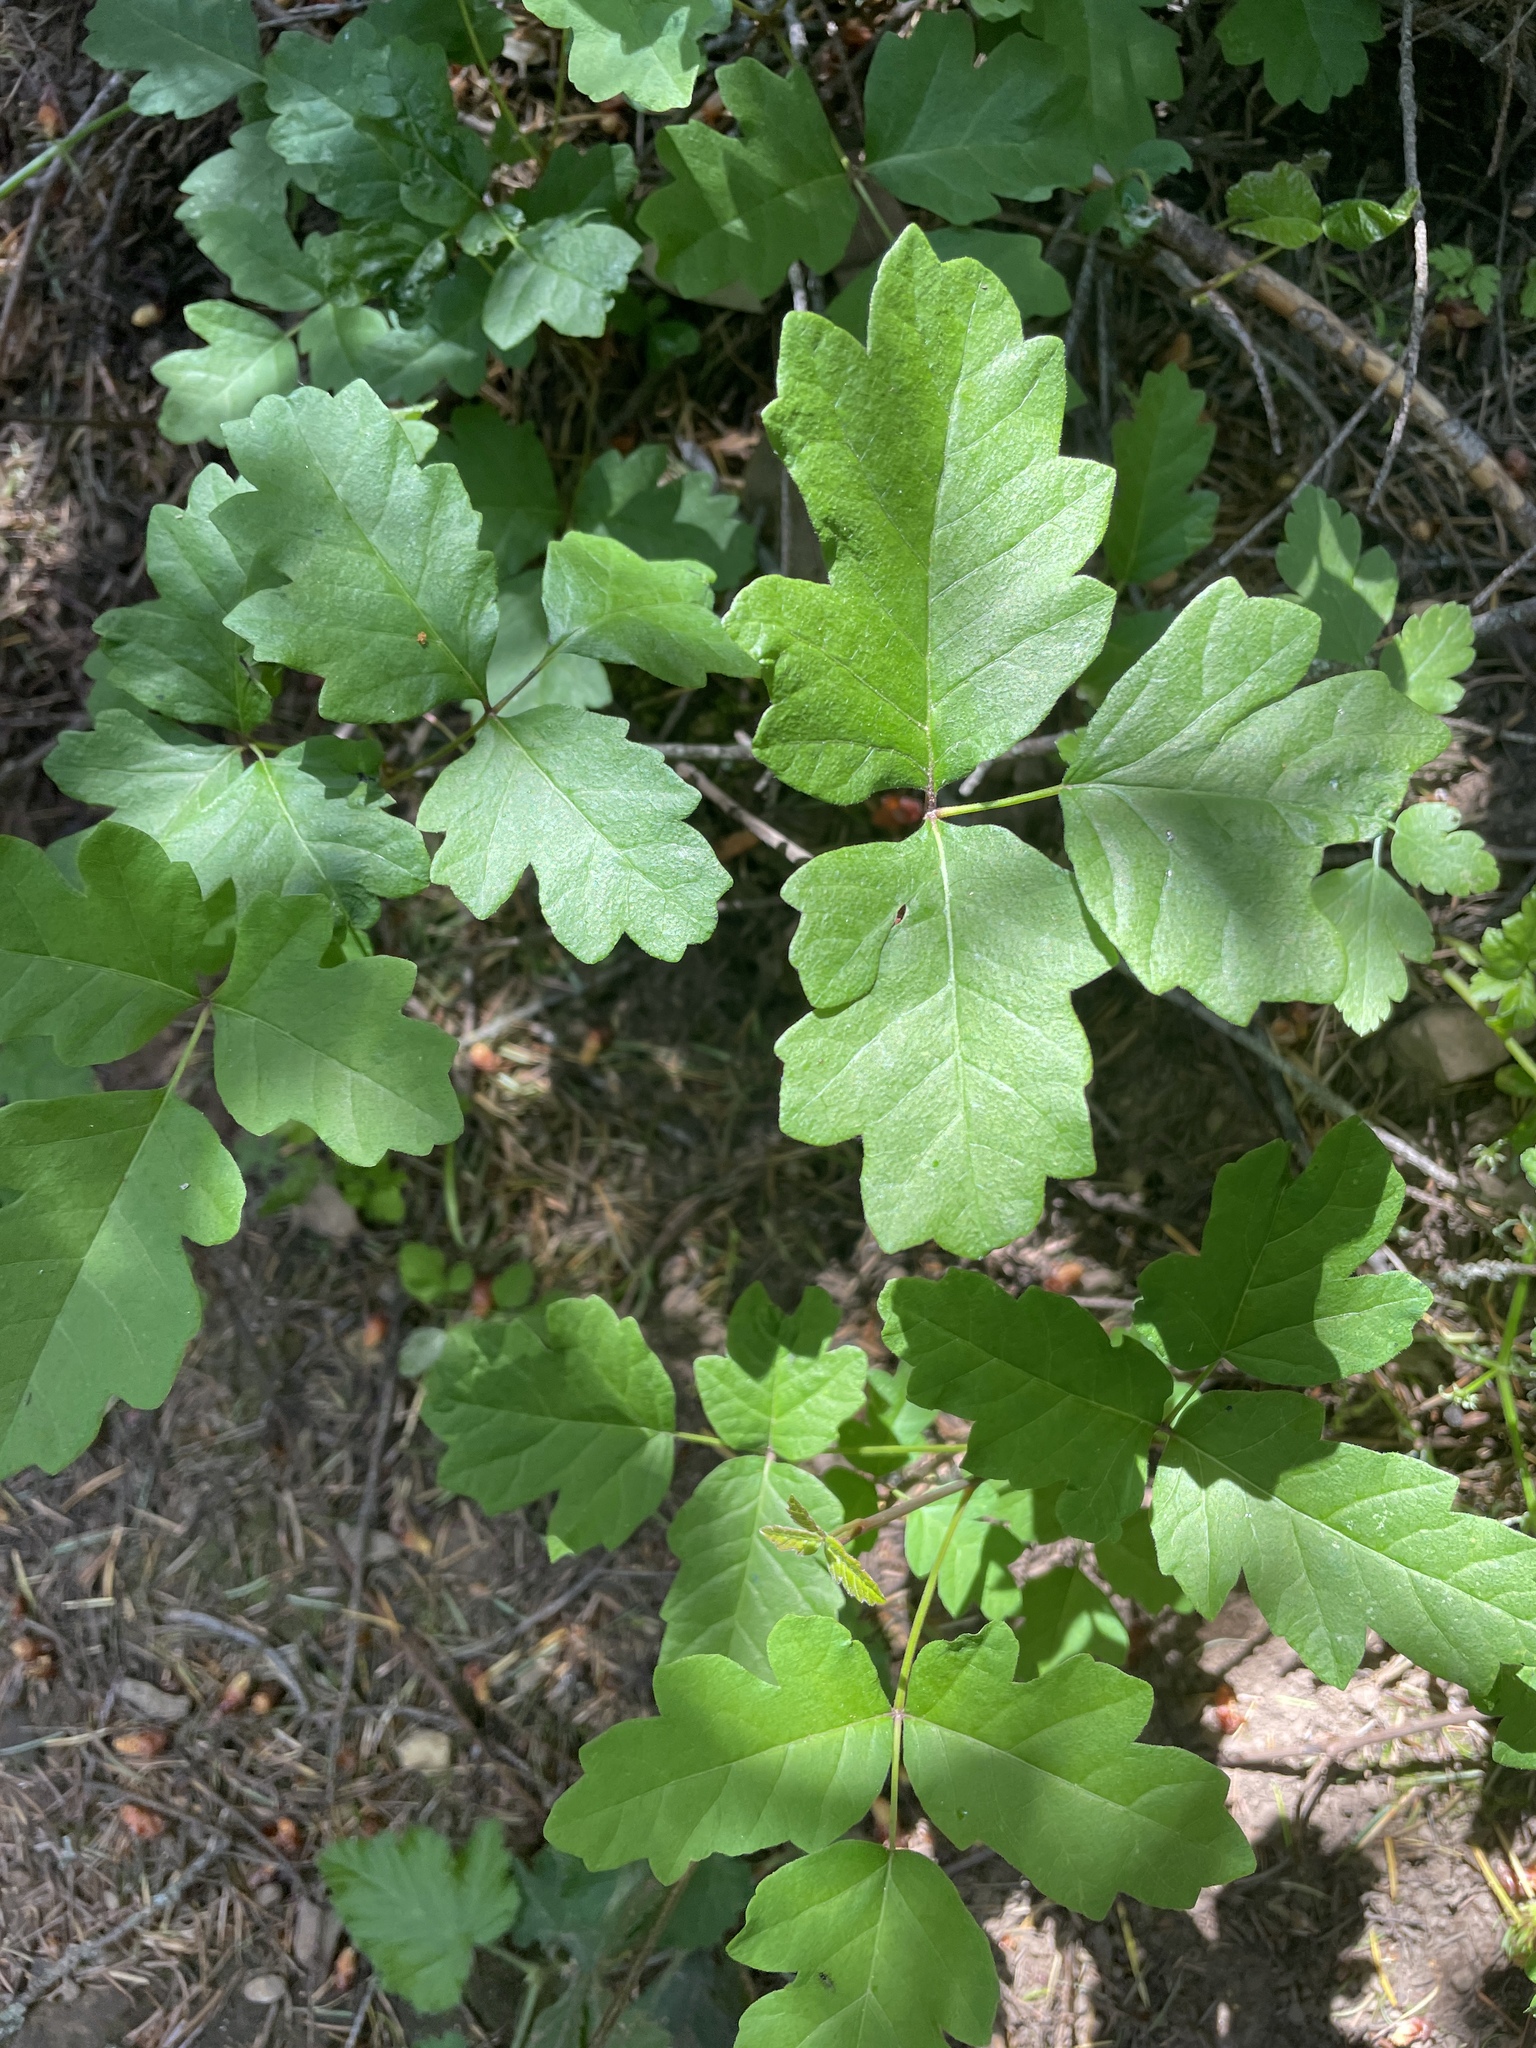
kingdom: Plantae
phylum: Tracheophyta
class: Magnoliopsida
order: Sapindales
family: Anacardiaceae
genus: Toxicodendron
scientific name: Toxicodendron diversilobum
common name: Pacific poison-oak
